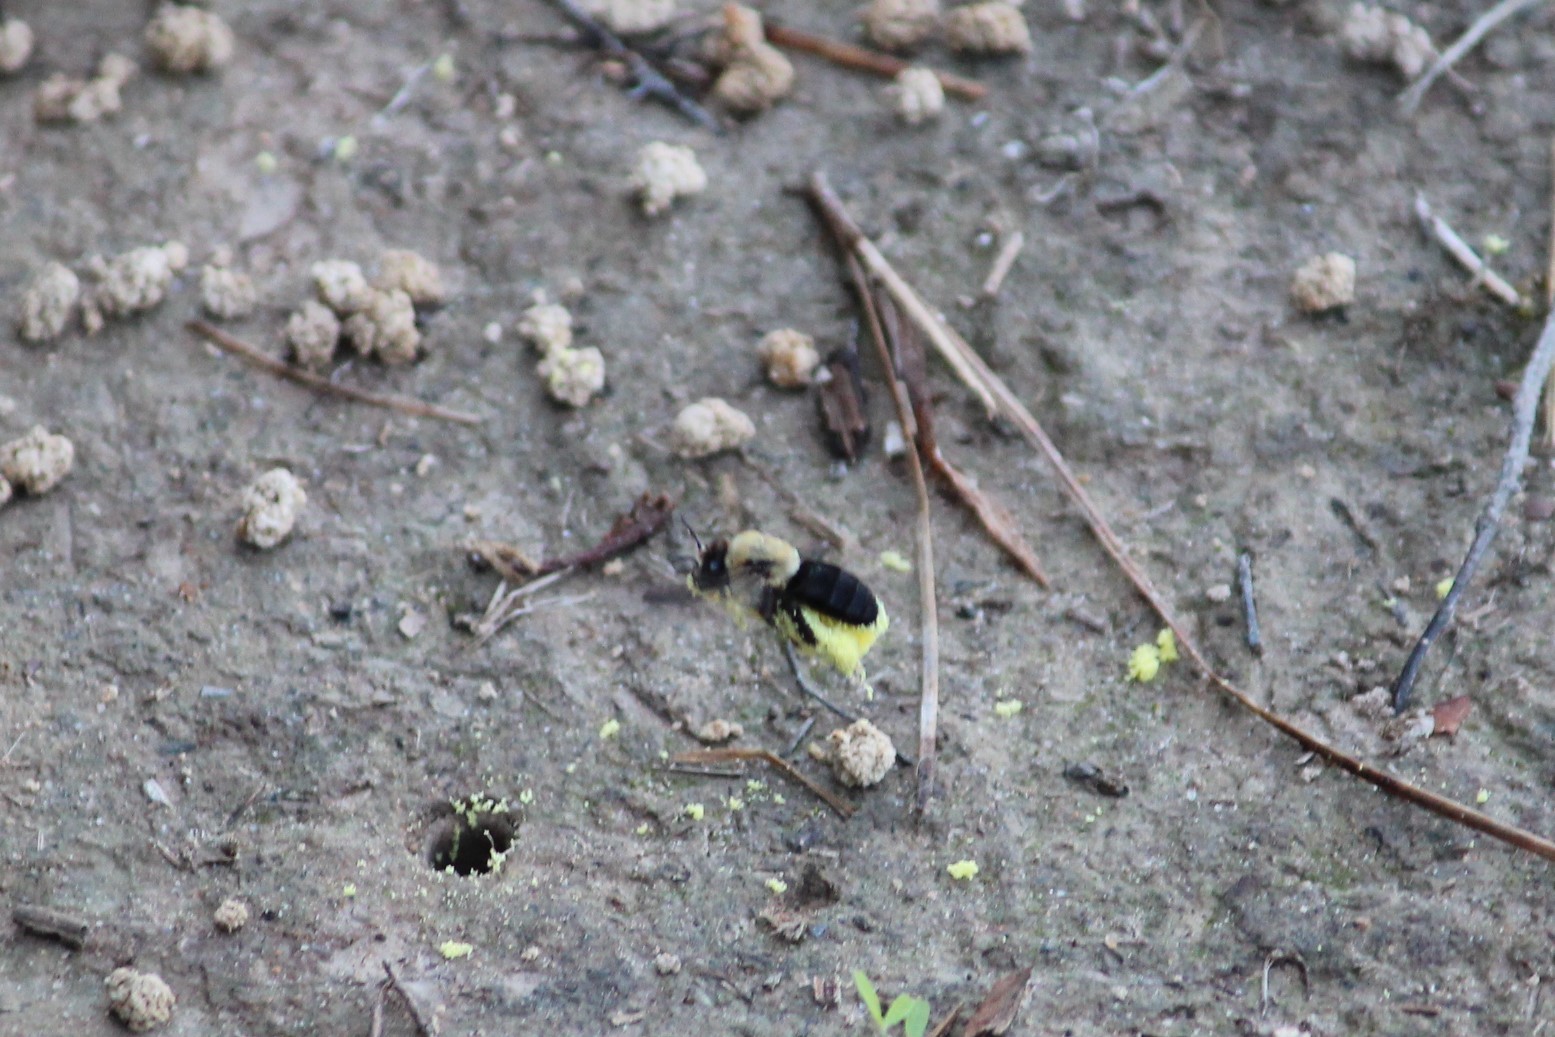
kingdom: Animalia
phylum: Arthropoda
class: Insecta
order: Hymenoptera
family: Apidae
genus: Ptilothrix
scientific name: Ptilothrix bombiformis
